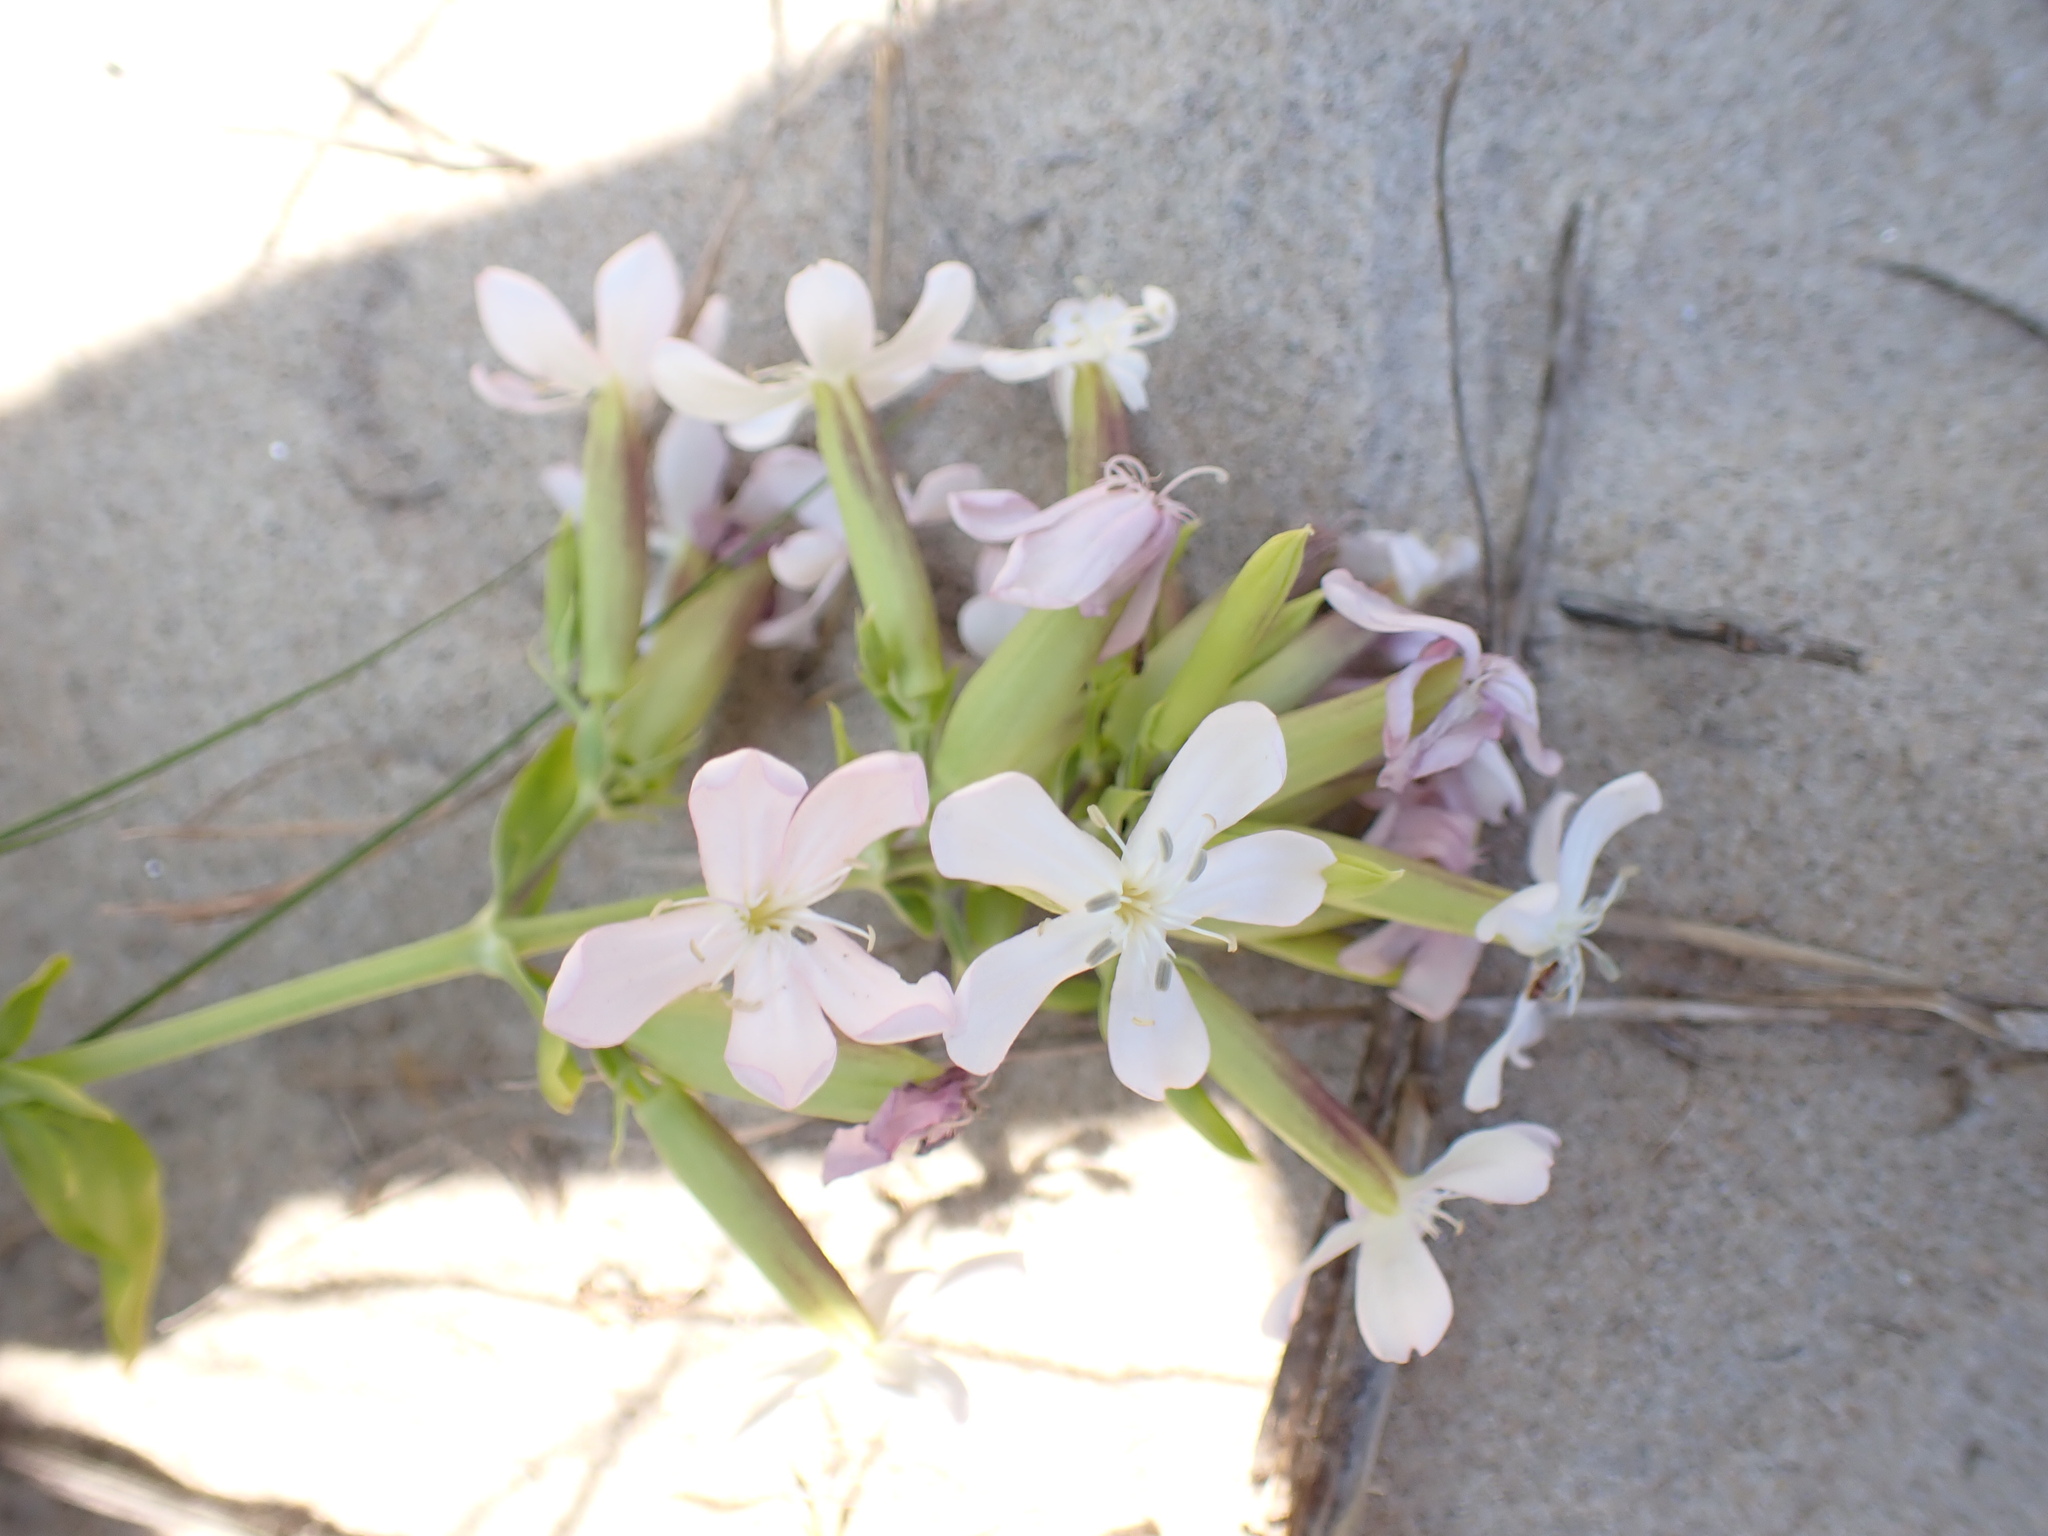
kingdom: Plantae
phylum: Tracheophyta
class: Magnoliopsida
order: Caryophyllales
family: Caryophyllaceae
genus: Saponaria
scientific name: Saponaria officinalis
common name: Soapwort
